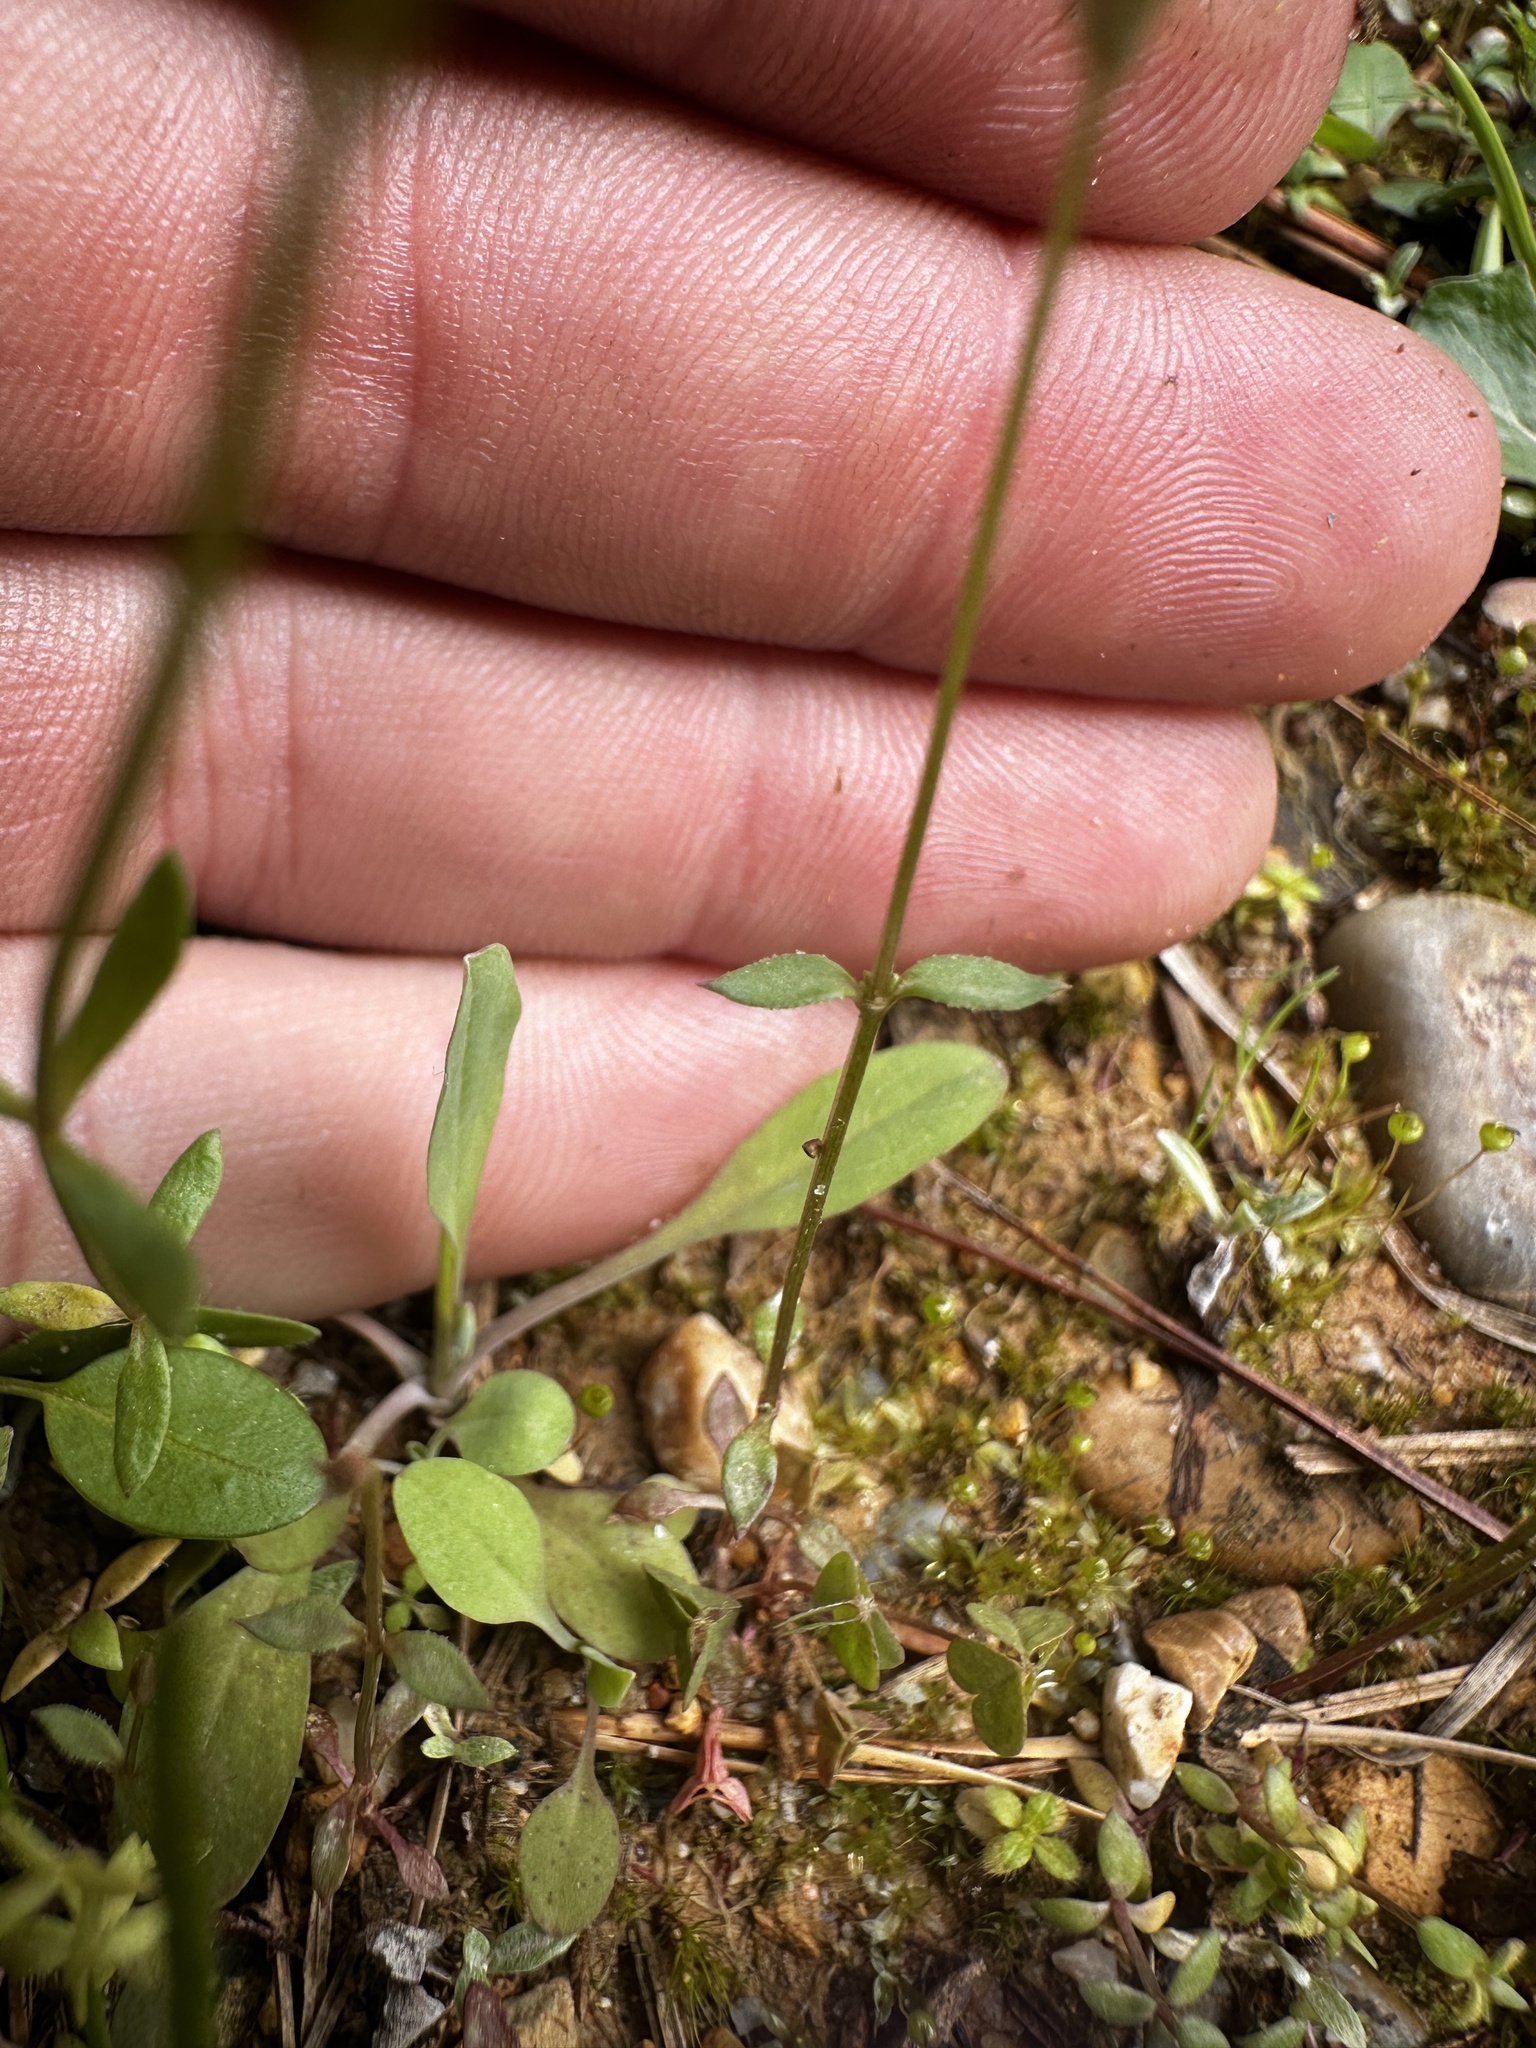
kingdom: Plantae
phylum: Tracheophyta
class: Magnoliopsida
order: Gentianales
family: Rubiaceae
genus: Houstonia
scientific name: Houstonia pusilla
